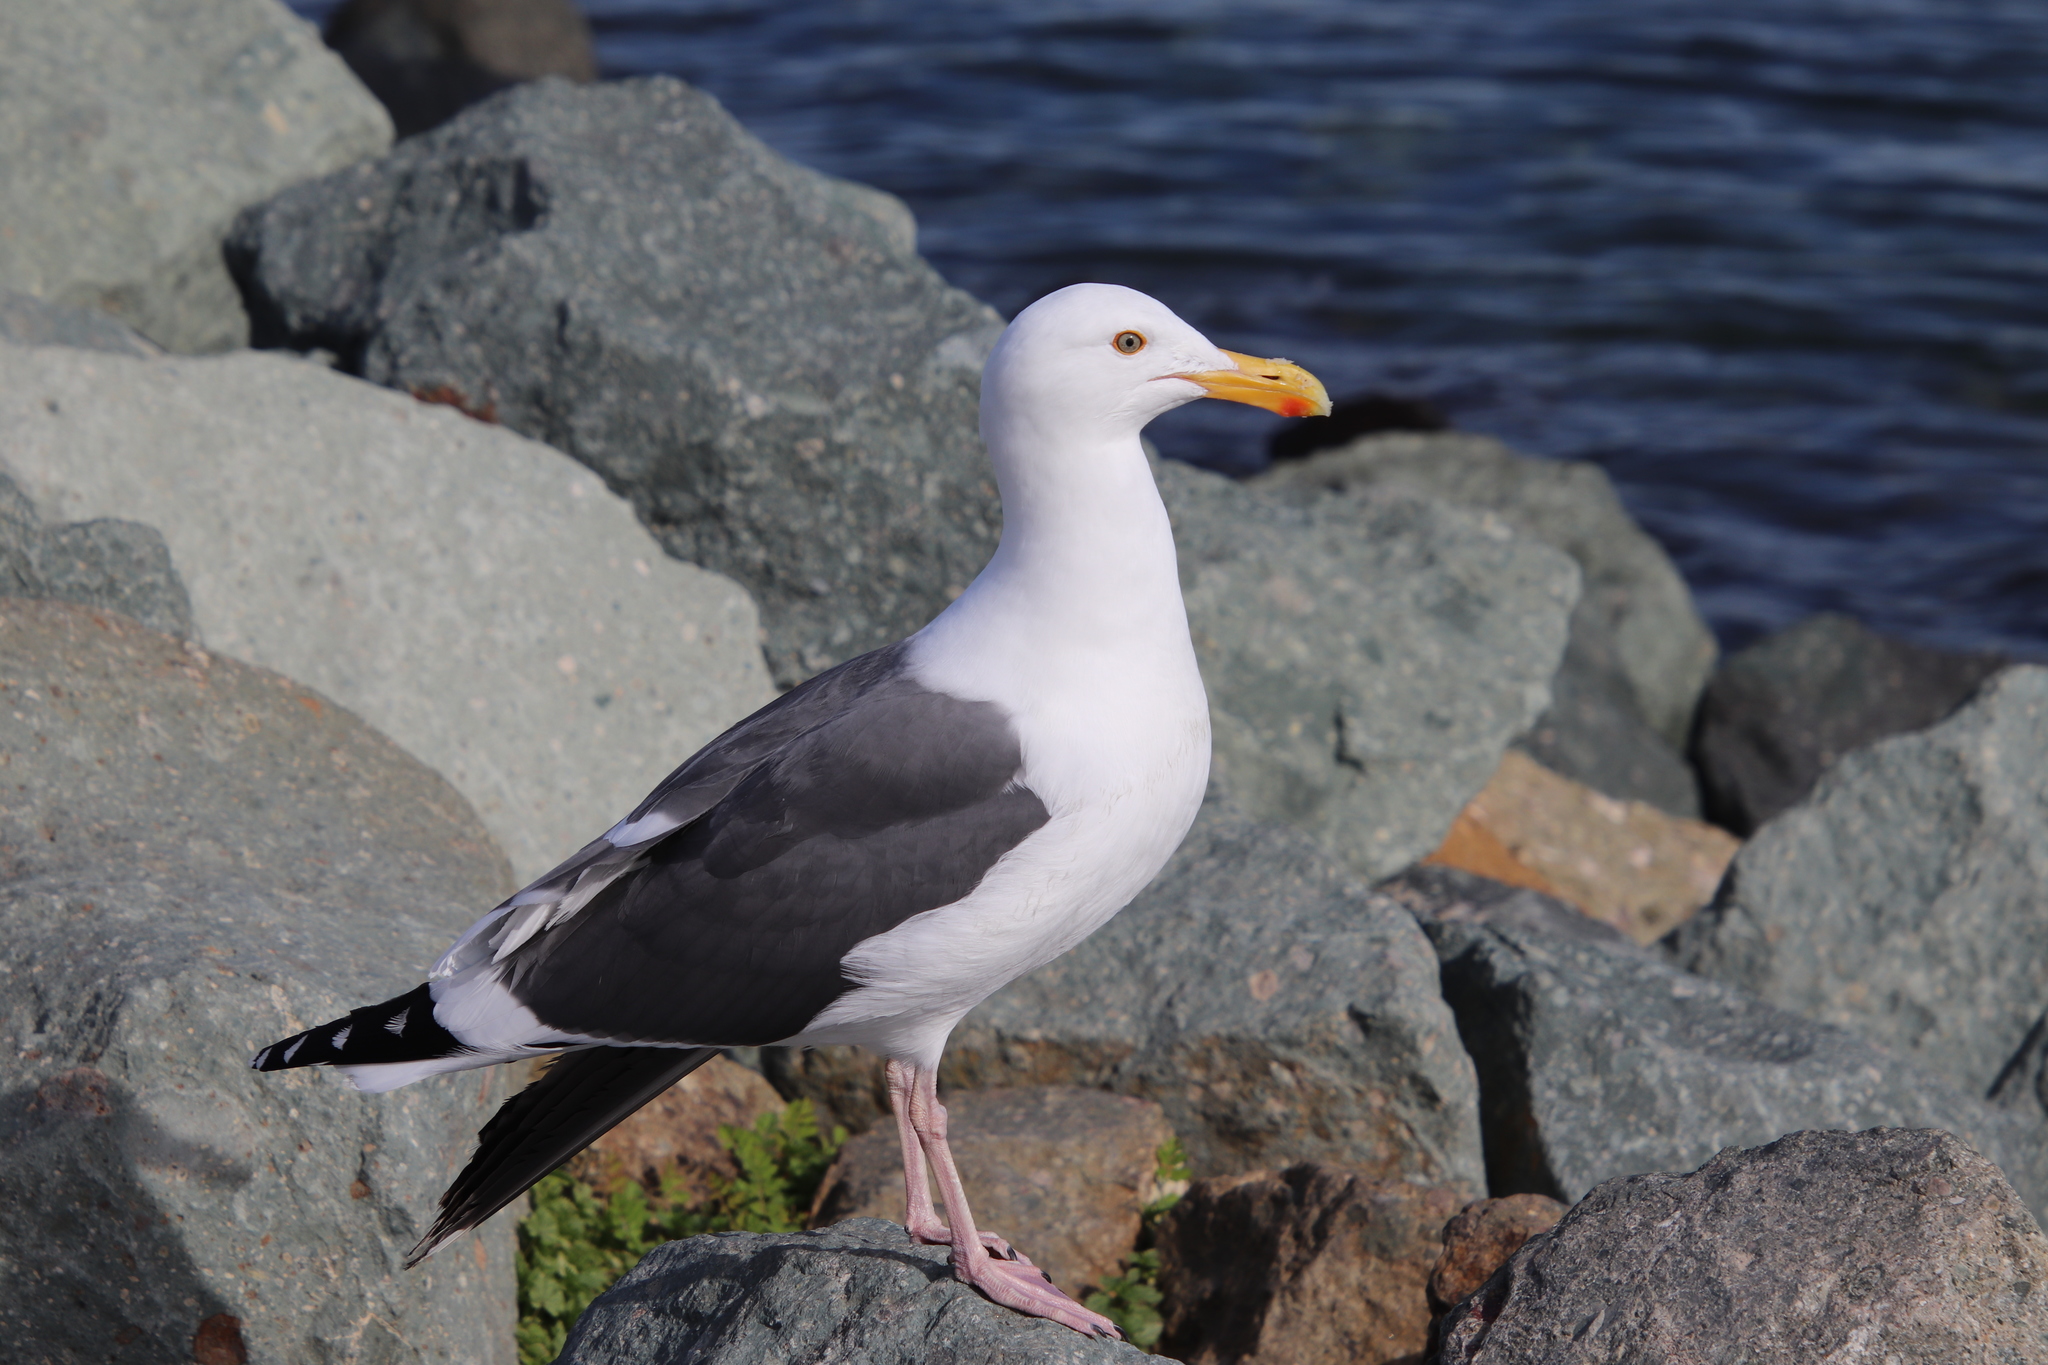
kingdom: Animalia
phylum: Chordata
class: Aves
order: Charadriiformes
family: Laridae
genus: Larus
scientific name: Larus occidentalis
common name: Western gull
